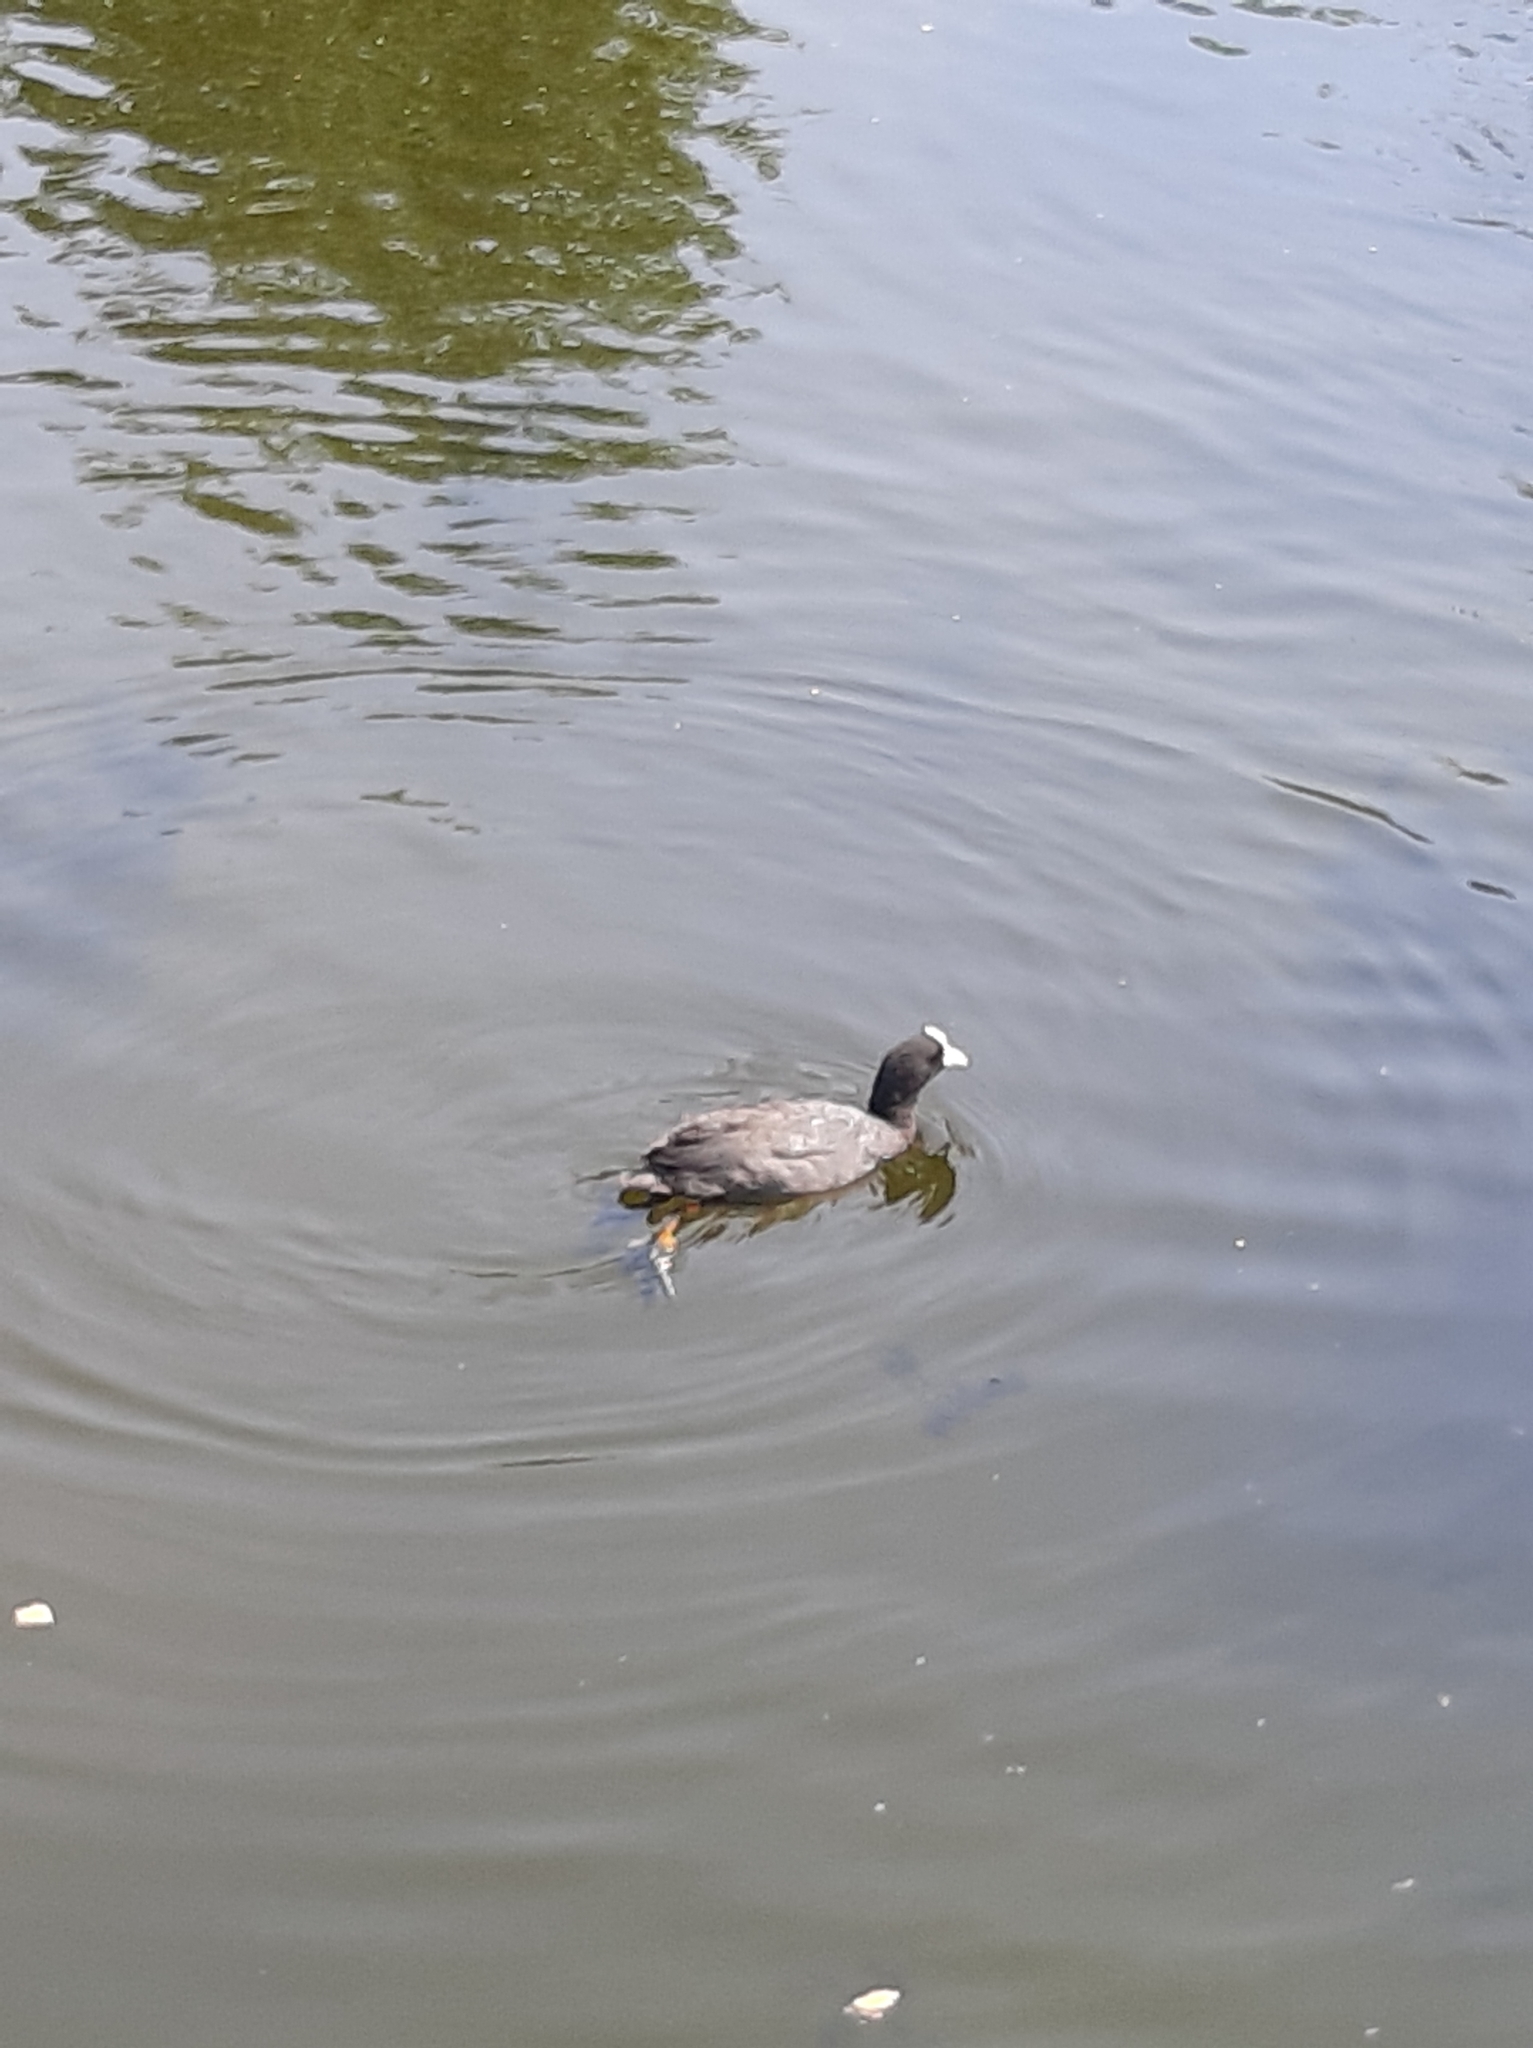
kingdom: Animalia
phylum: Chordata
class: Aves
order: Gruiformes
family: Rallidae
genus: Fulica
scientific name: Fulica atra
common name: Eurasian coot
